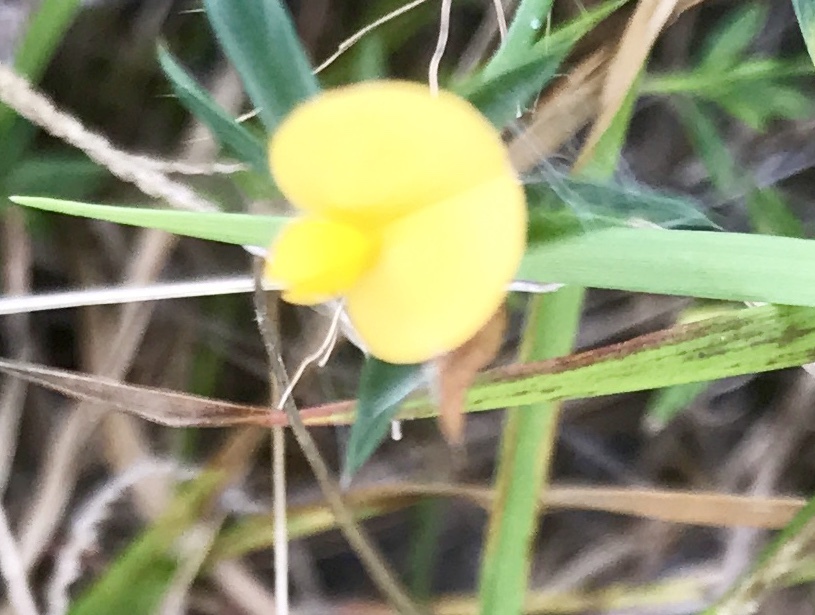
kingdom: Plantae
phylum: Tracheophyta
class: Magnoliopsida
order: Fabales
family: Fabaceae
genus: Stylosanthes
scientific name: Stylosanthes biflora
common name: Two-flower pencil-flower
